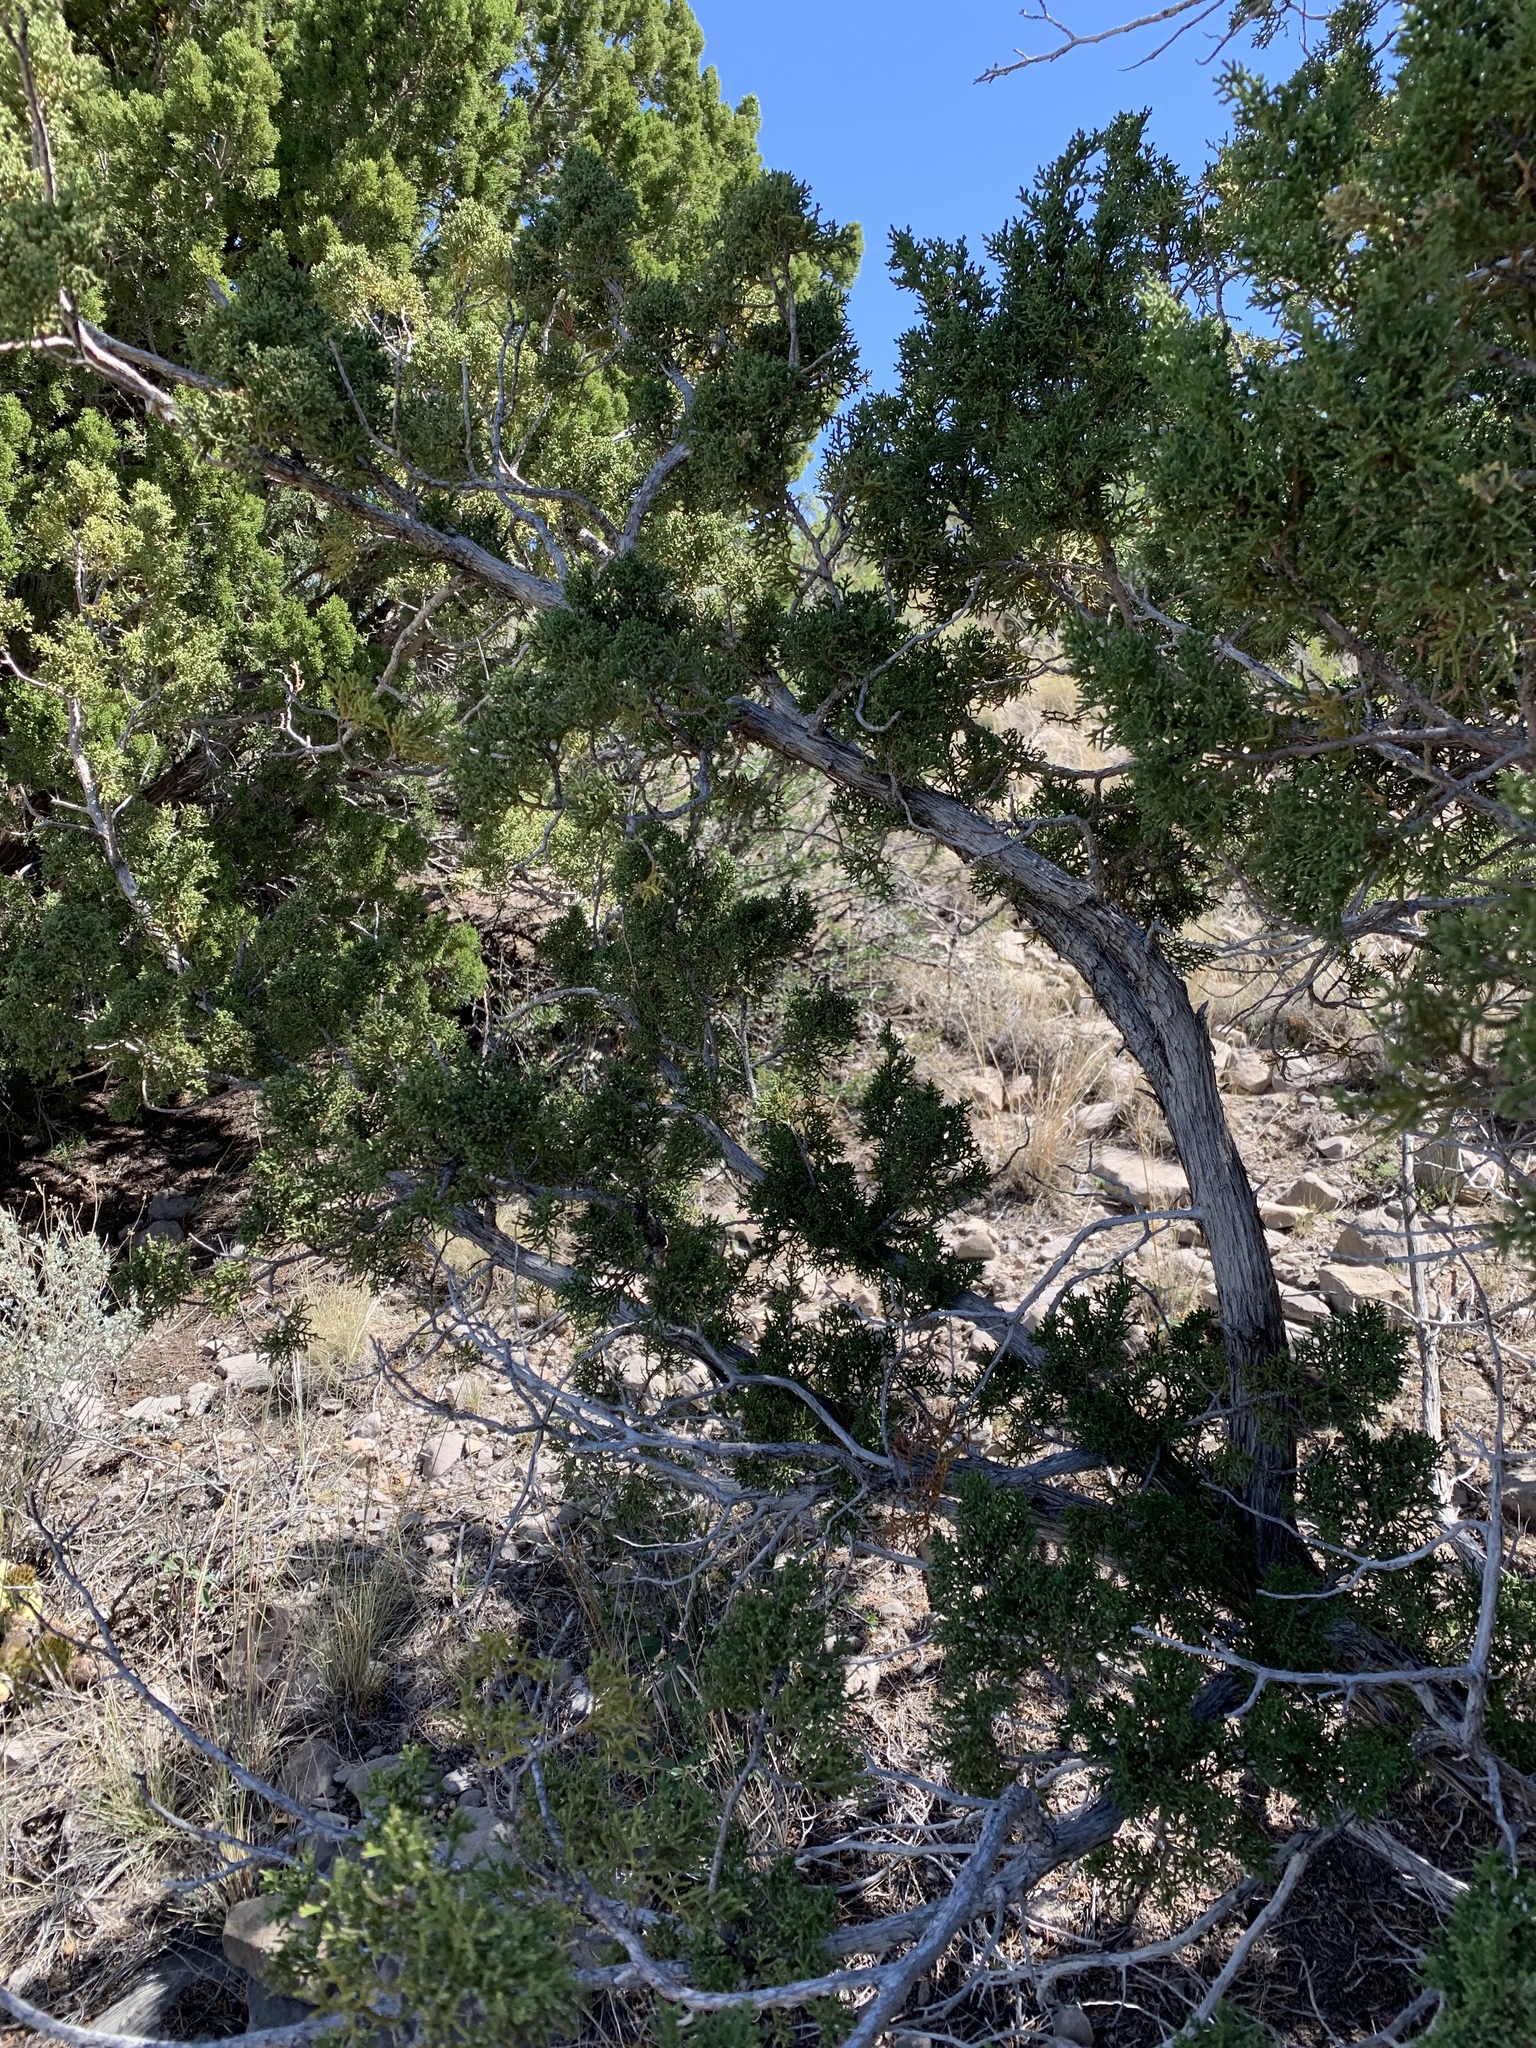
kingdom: Plantae
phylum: Tracheophyta
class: Pinopsida
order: Pinales
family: Cupressaceae
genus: Juniperus
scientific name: Juniperus monosperma
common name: One-seed juniper
